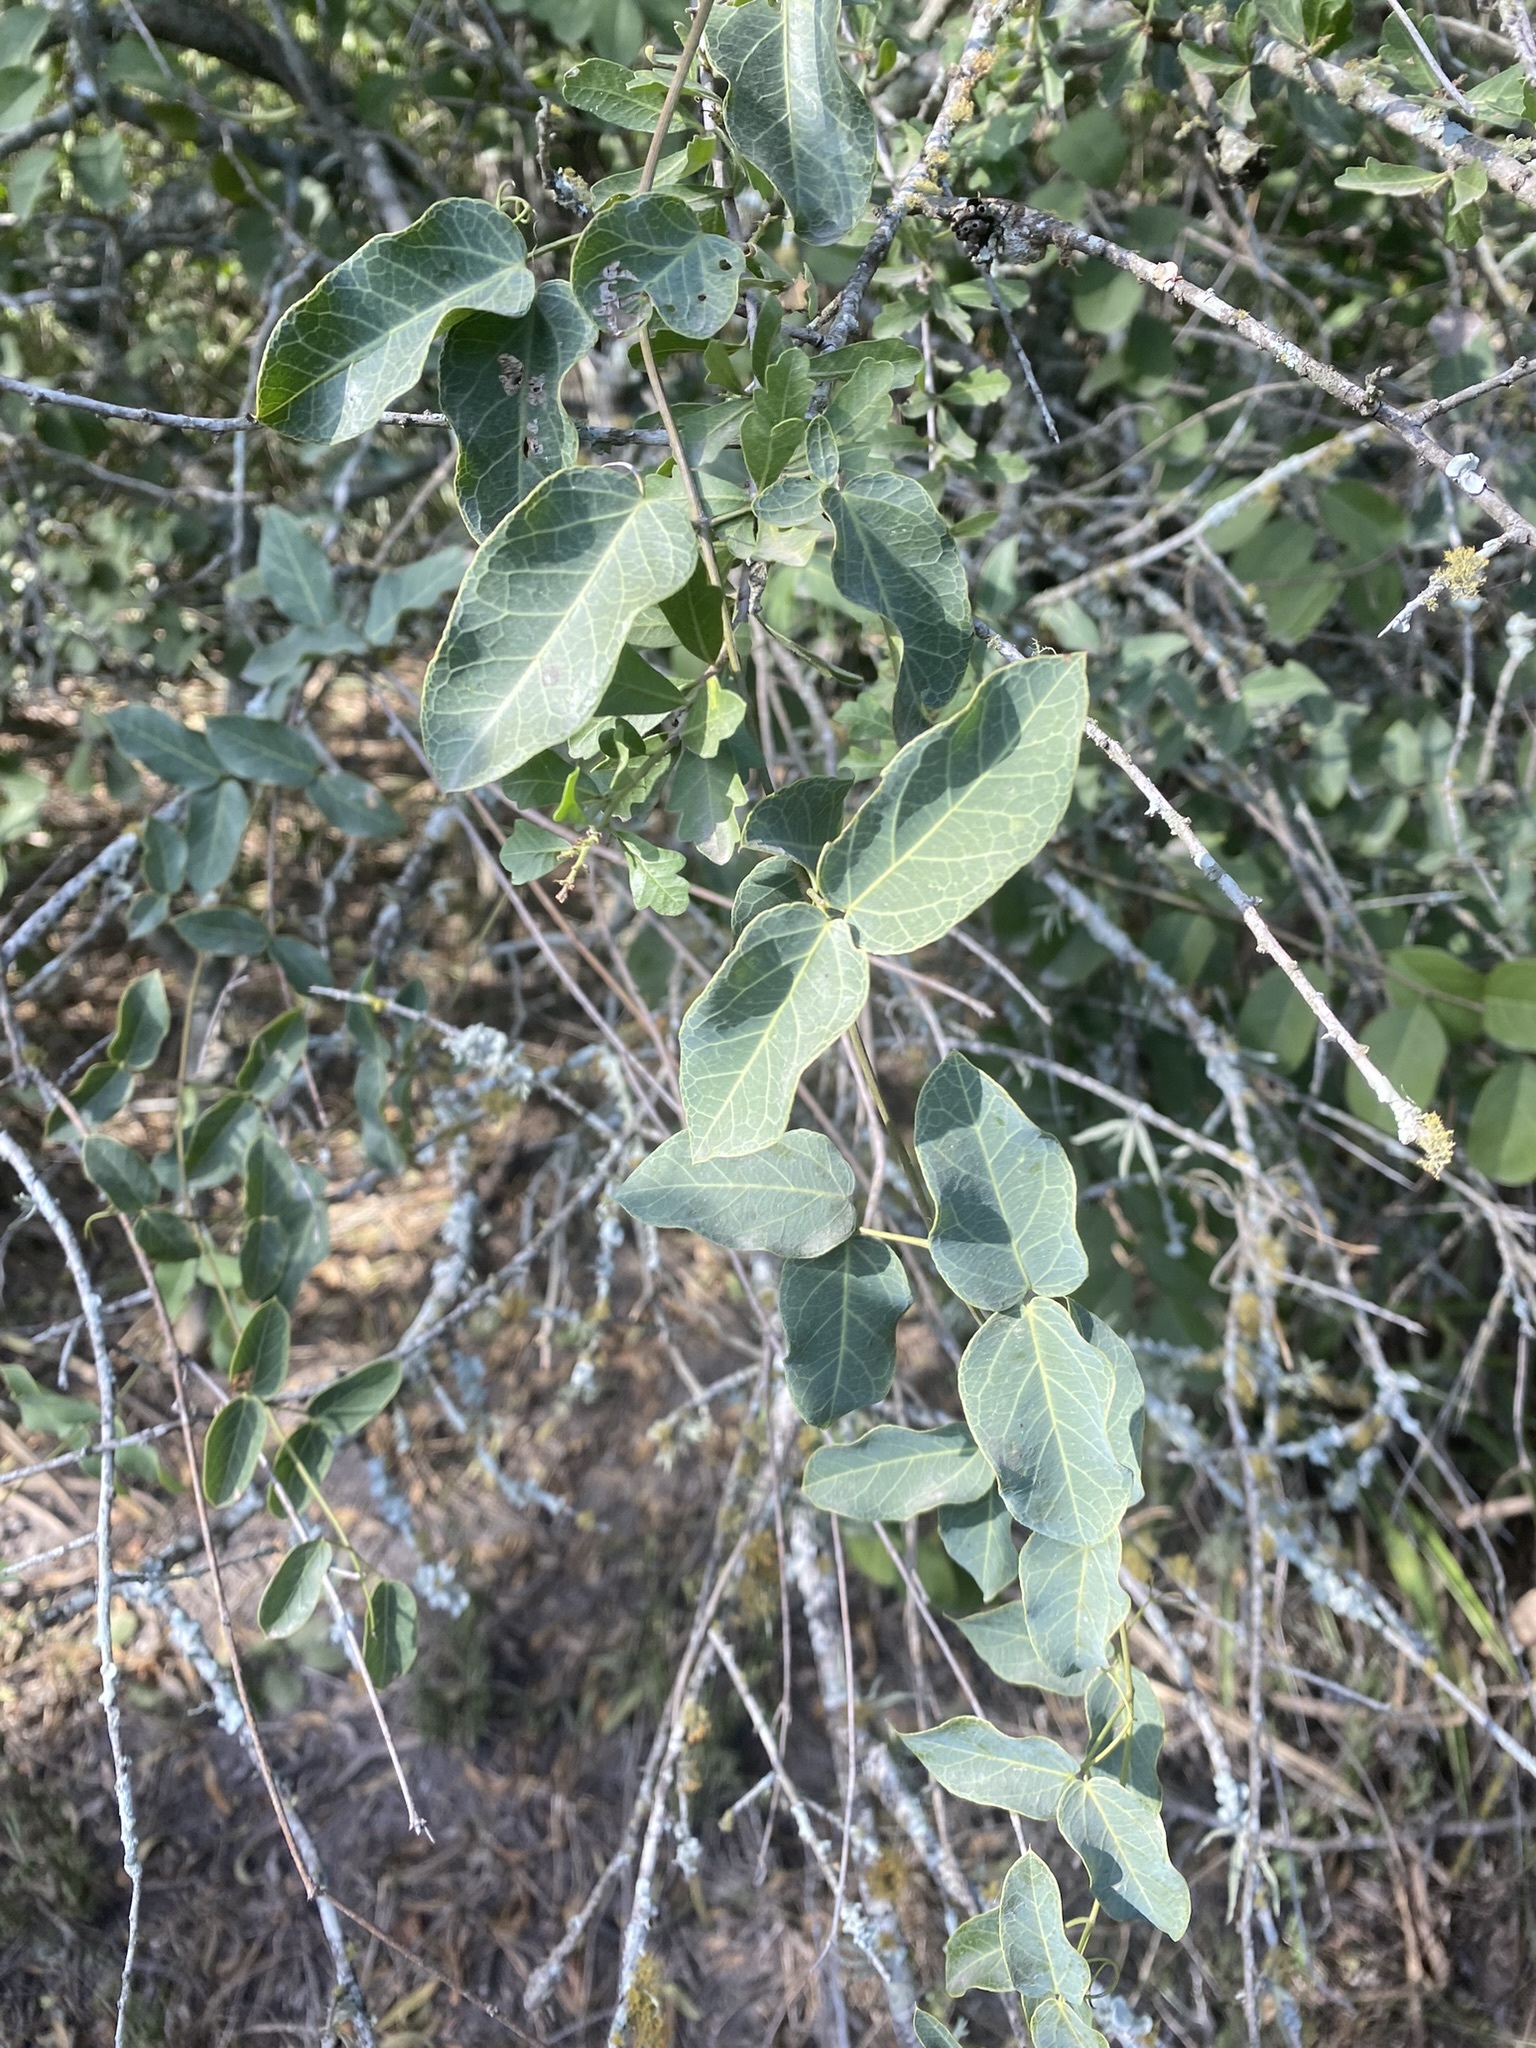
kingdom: Plantae
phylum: Tracheophyta
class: Magnoliopsida
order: Lamiales
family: Bignoniaceae
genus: Dolichandra
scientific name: Dolichandra cynanchoides
